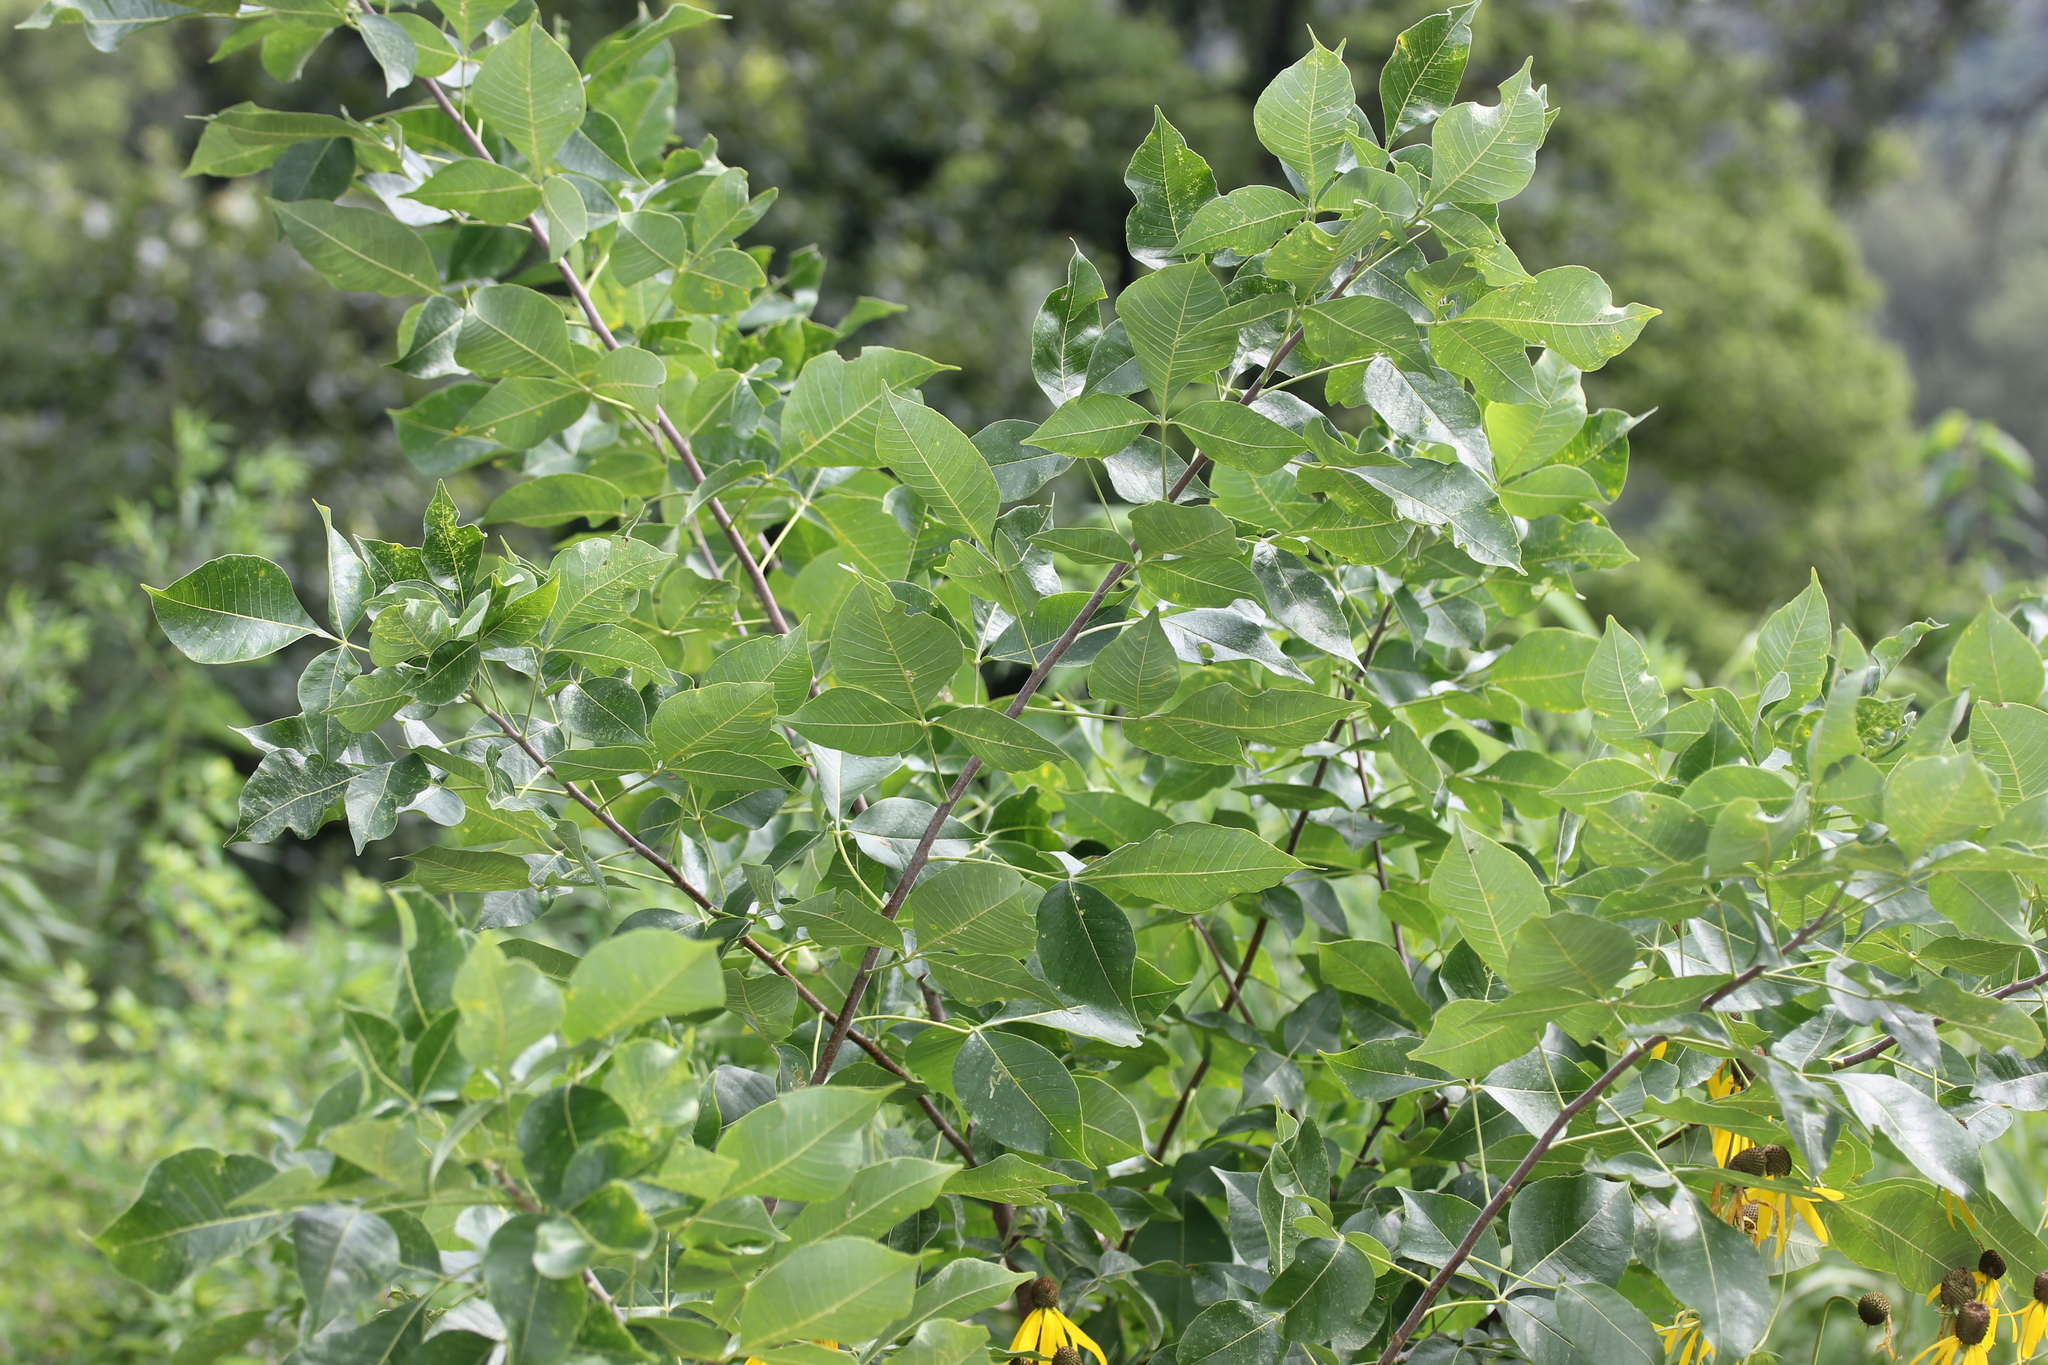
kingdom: Plantae
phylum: Tracheophyta
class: Magnoliopsida
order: Sapindales
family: Rutaceae
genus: Ptelea
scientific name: Ptelea trifoliata
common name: Common hop-tree
